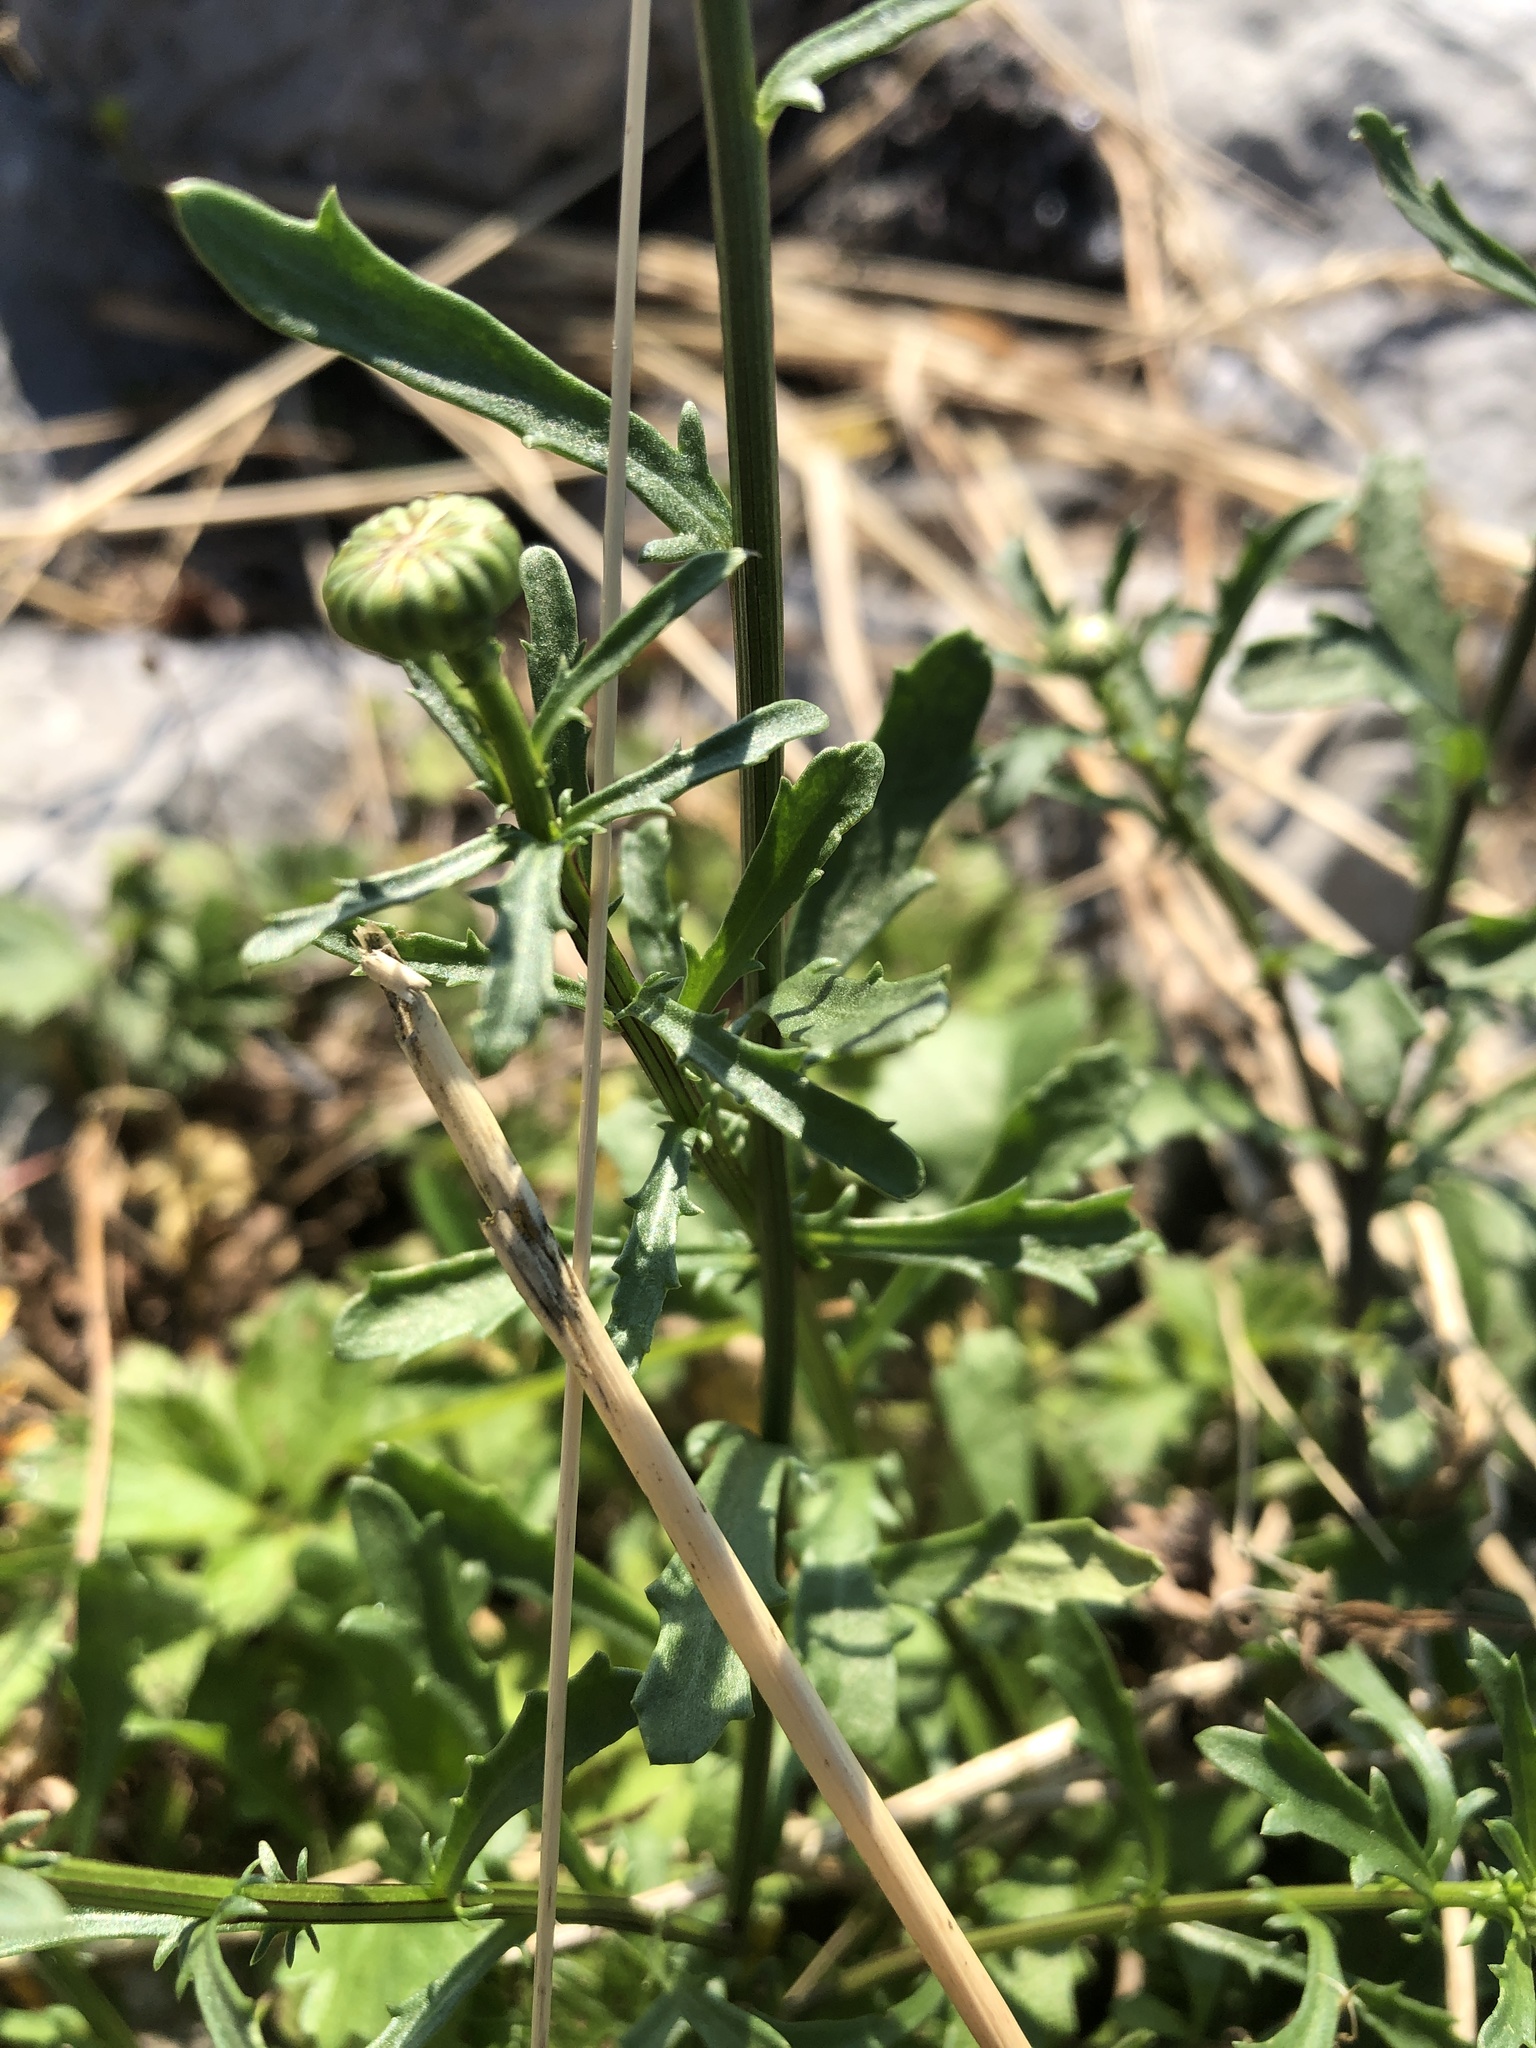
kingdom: Plantae
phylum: Tracheophyta
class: Magnoliopsida
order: Asterales
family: Asteraceae
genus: Leucanthemum
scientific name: Leucanthemum vulgare
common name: Oxeye daisy
